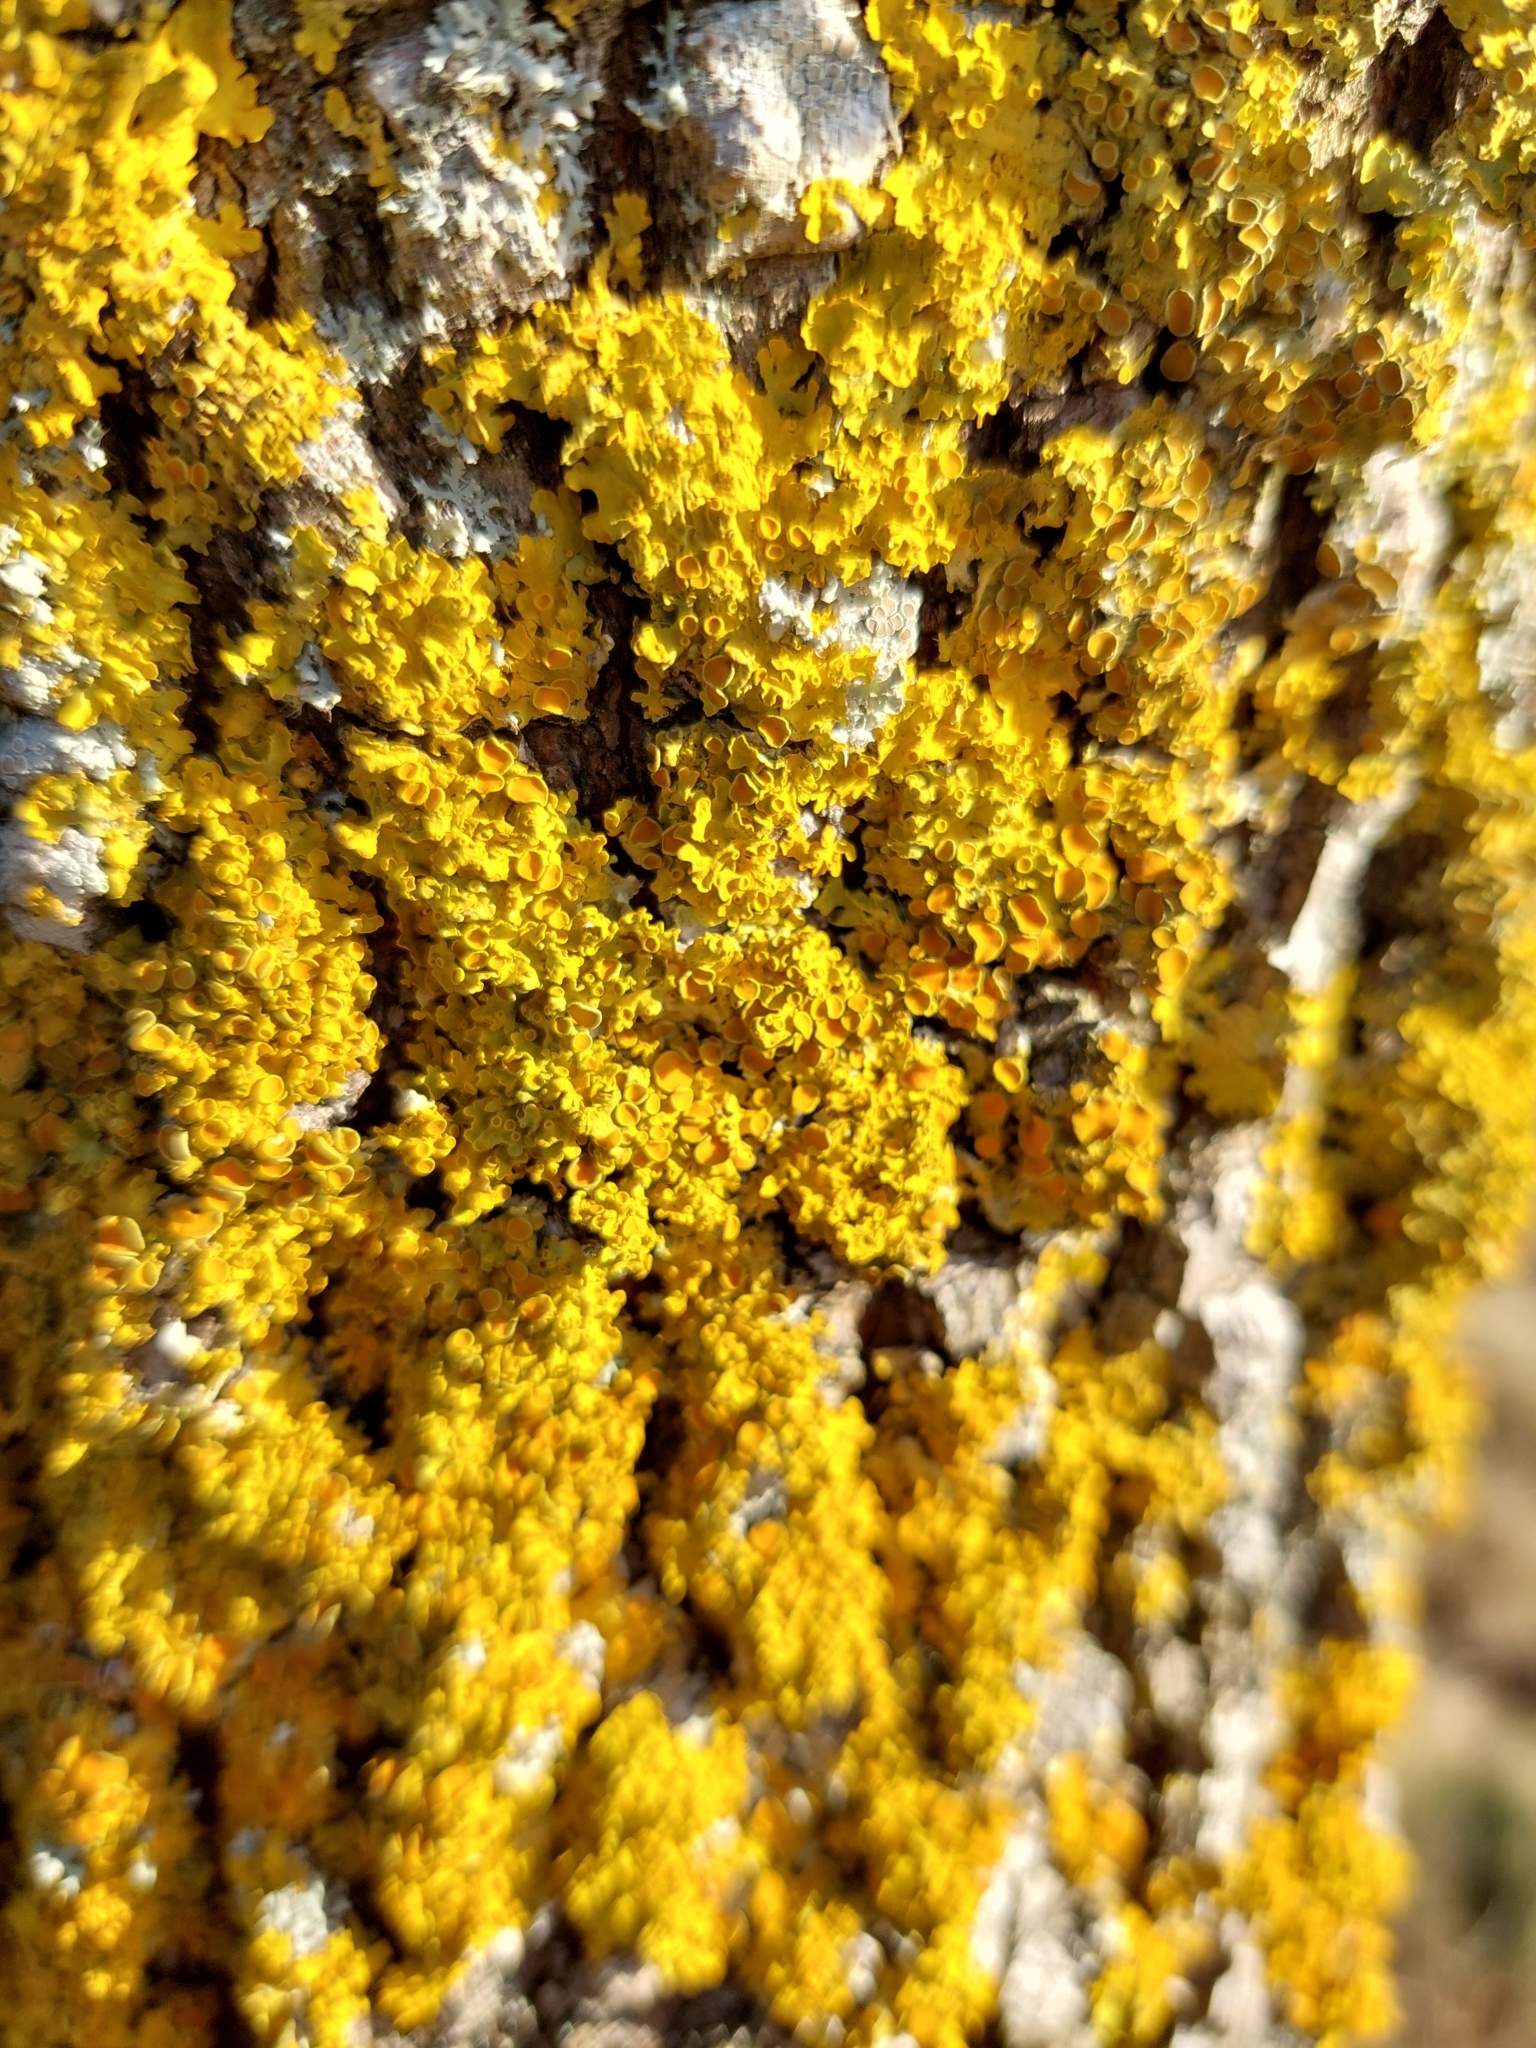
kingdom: Fungi
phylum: Ascomycota
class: Lecanoromycetes
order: Teloschistales
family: Teloschistaceae
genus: Xanthoria
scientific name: Xanthoria parietina
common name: Common orange lichen
